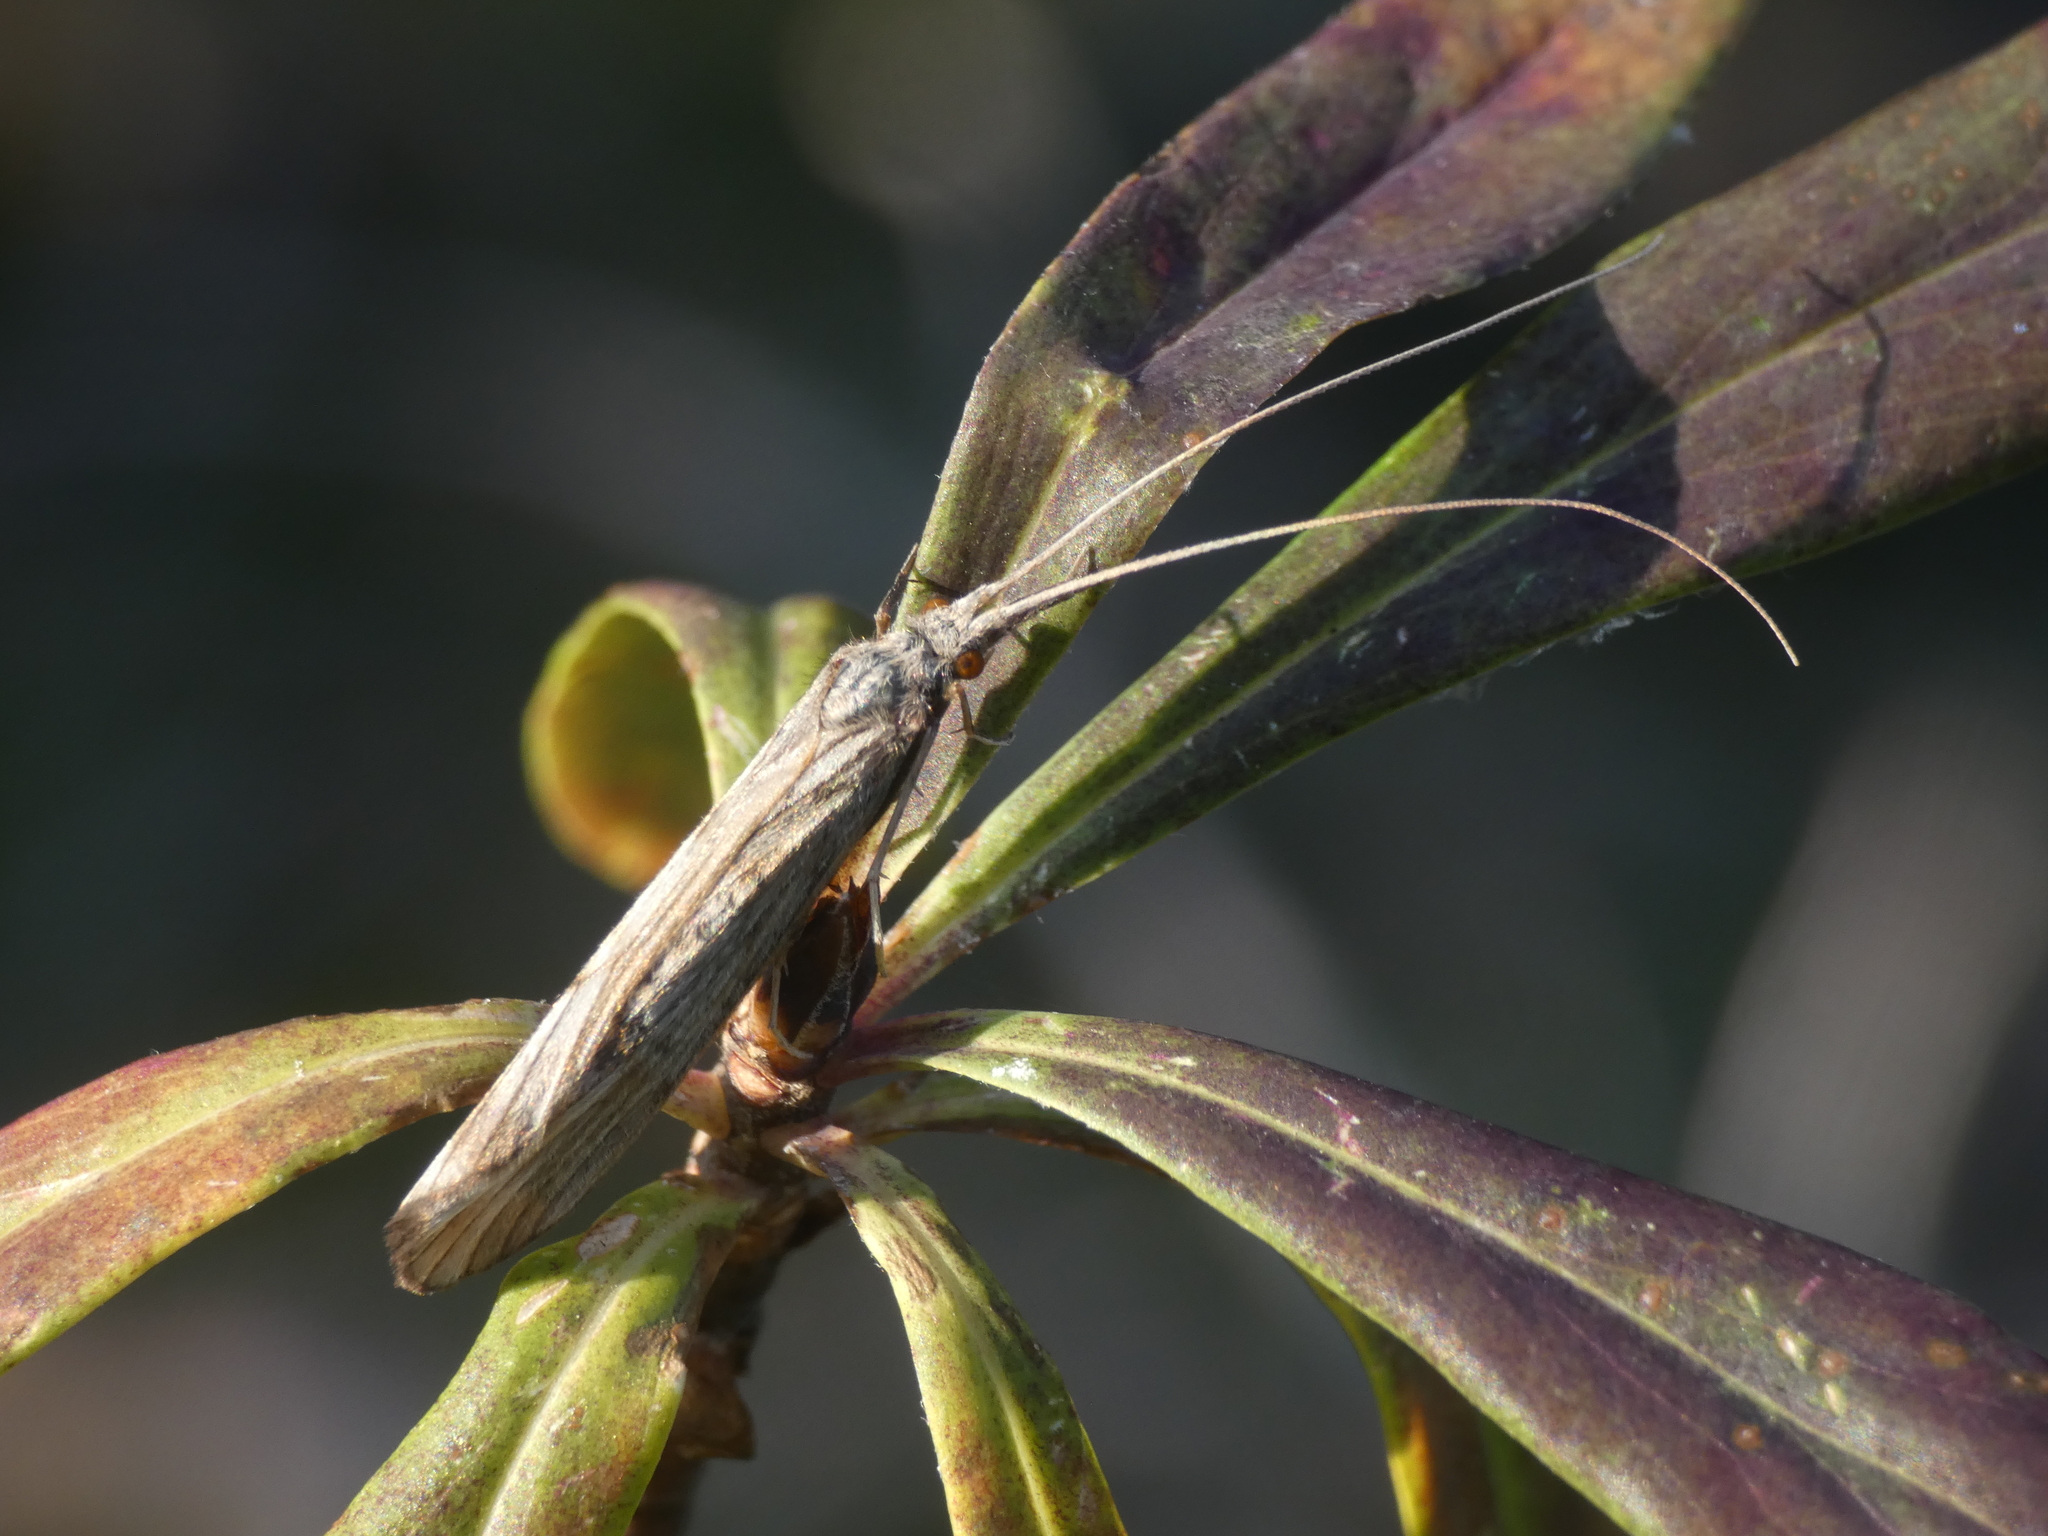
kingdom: Animalia
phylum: Arthropoda
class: Insecta
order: Trichoptera
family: Odontoceridae
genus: Odontocerum
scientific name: Odontocerum albicorne
